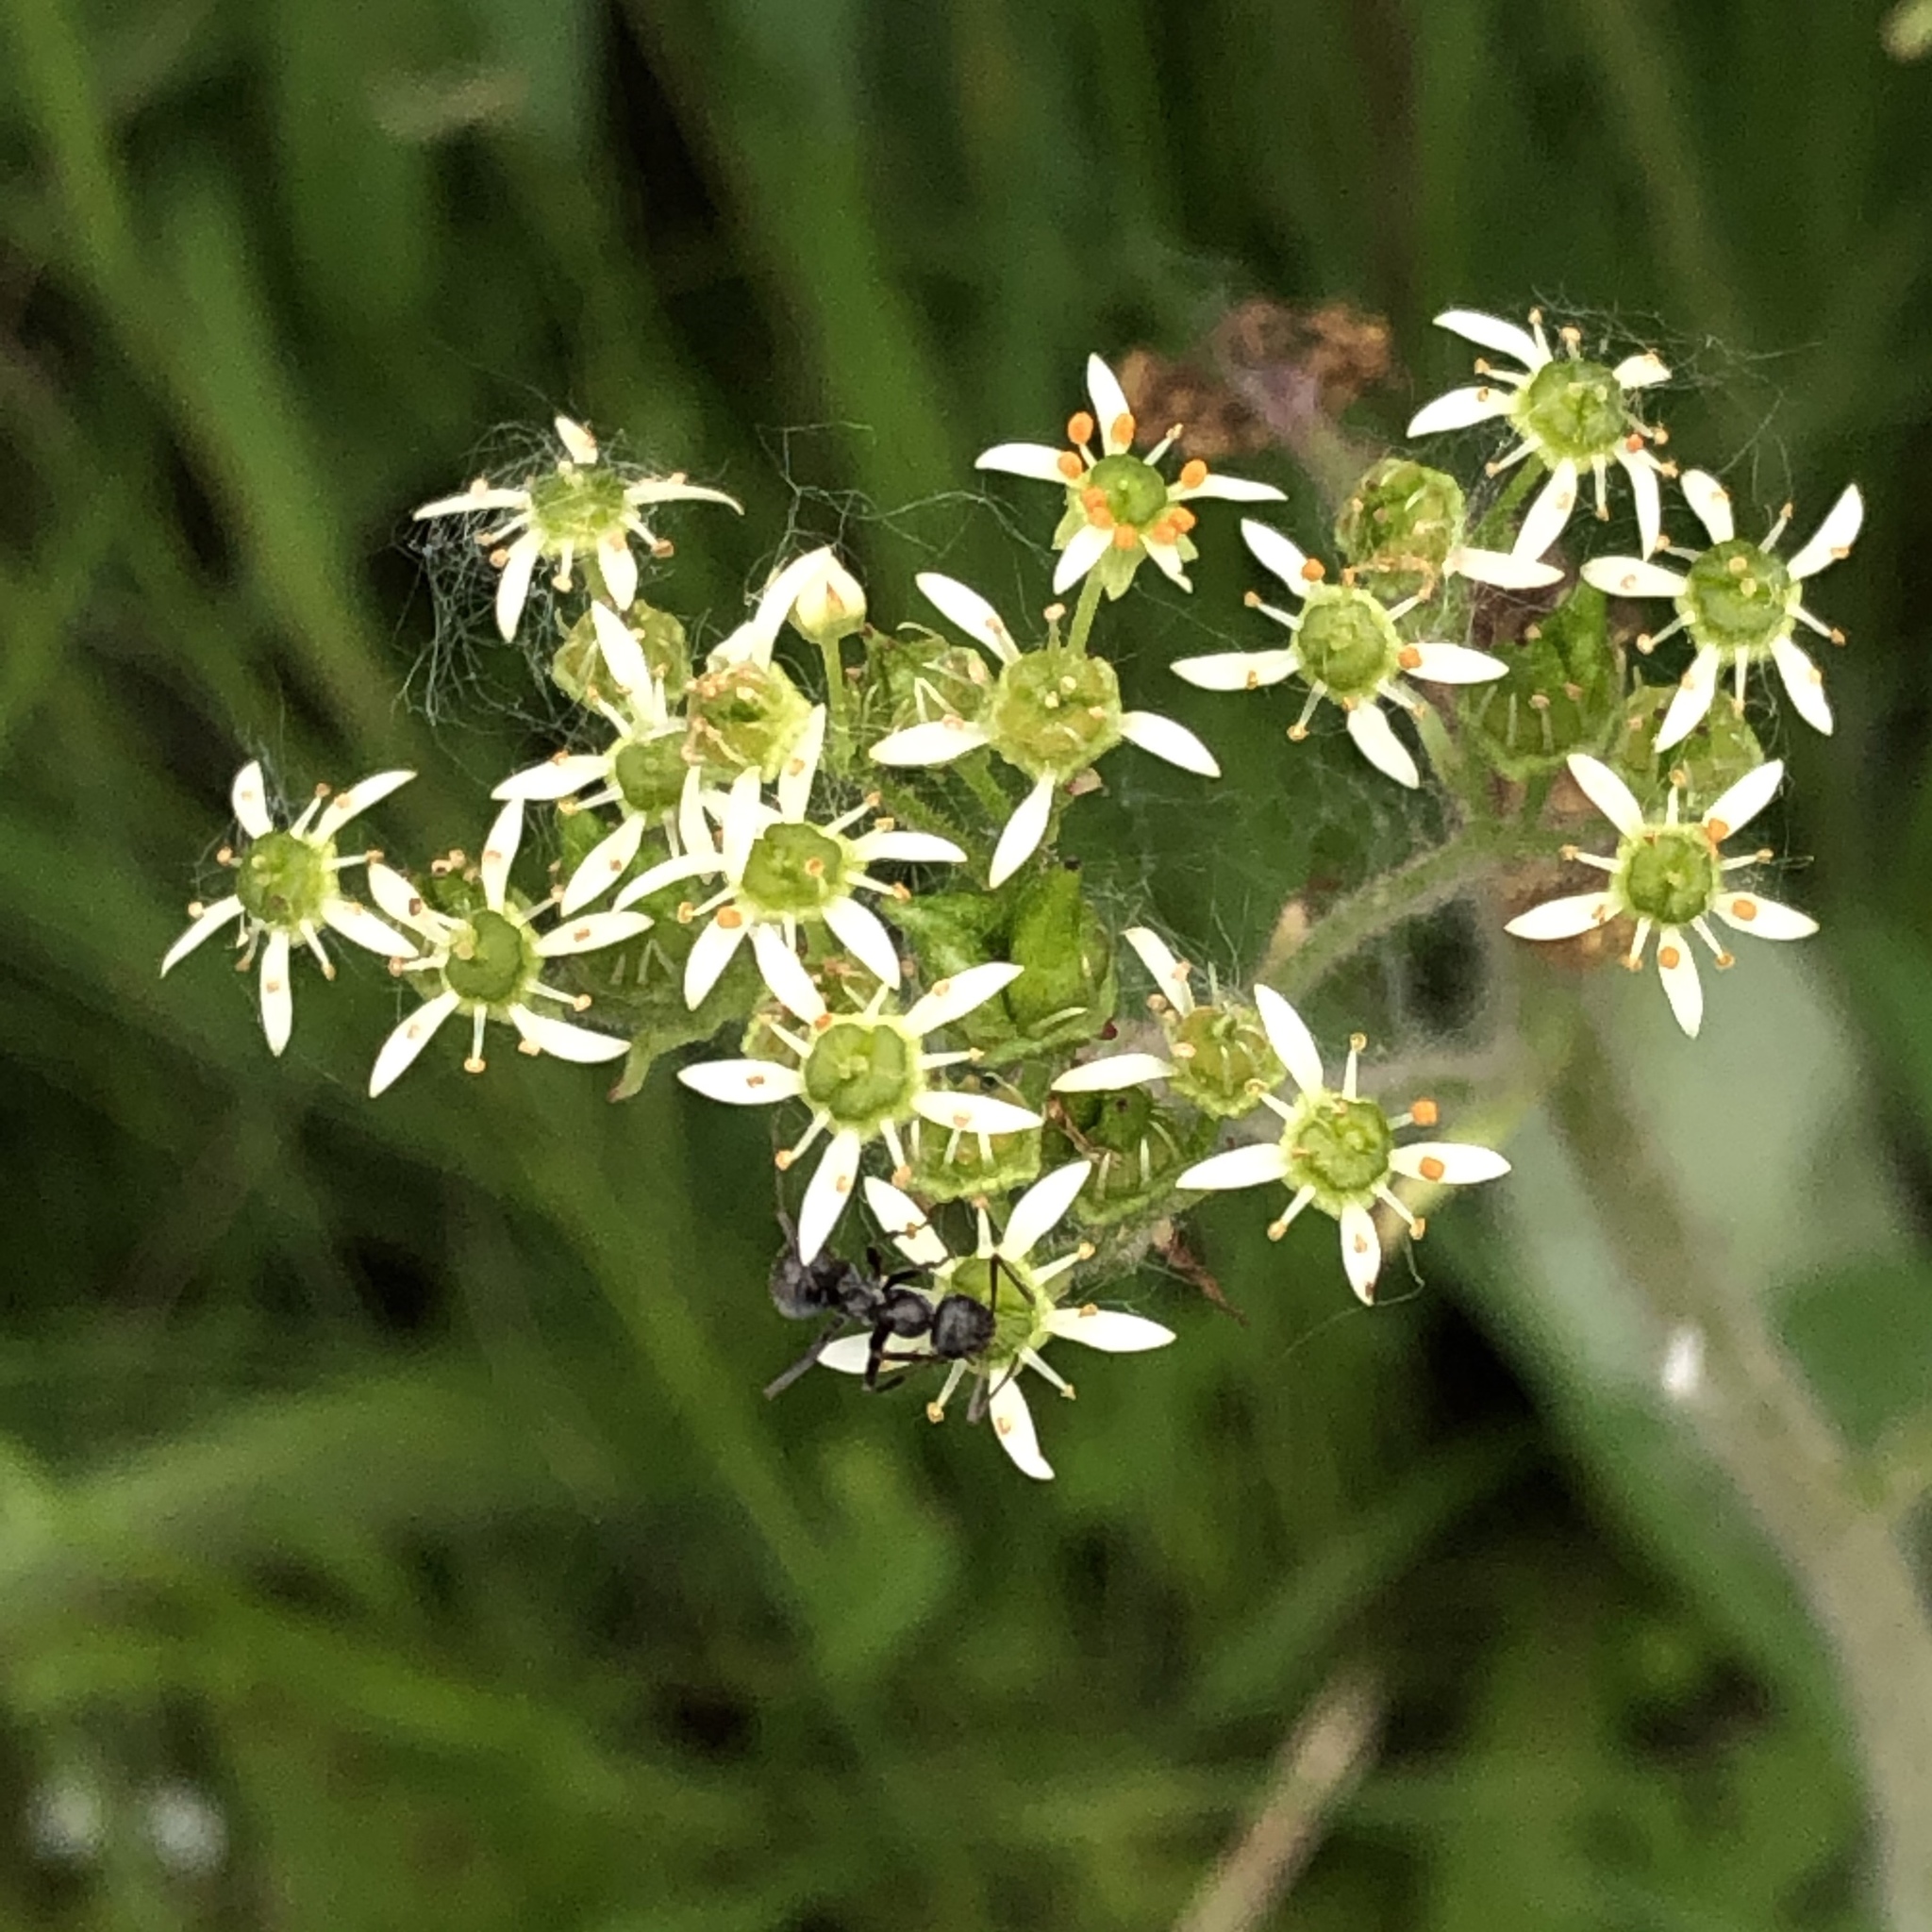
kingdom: Plantae
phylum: Tracheophyta
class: Magnoliopsida
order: Saxifragales
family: Saxifragaceae
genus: Micranthes
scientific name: Micranthes pensylvanica
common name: Marsh saxifrage
